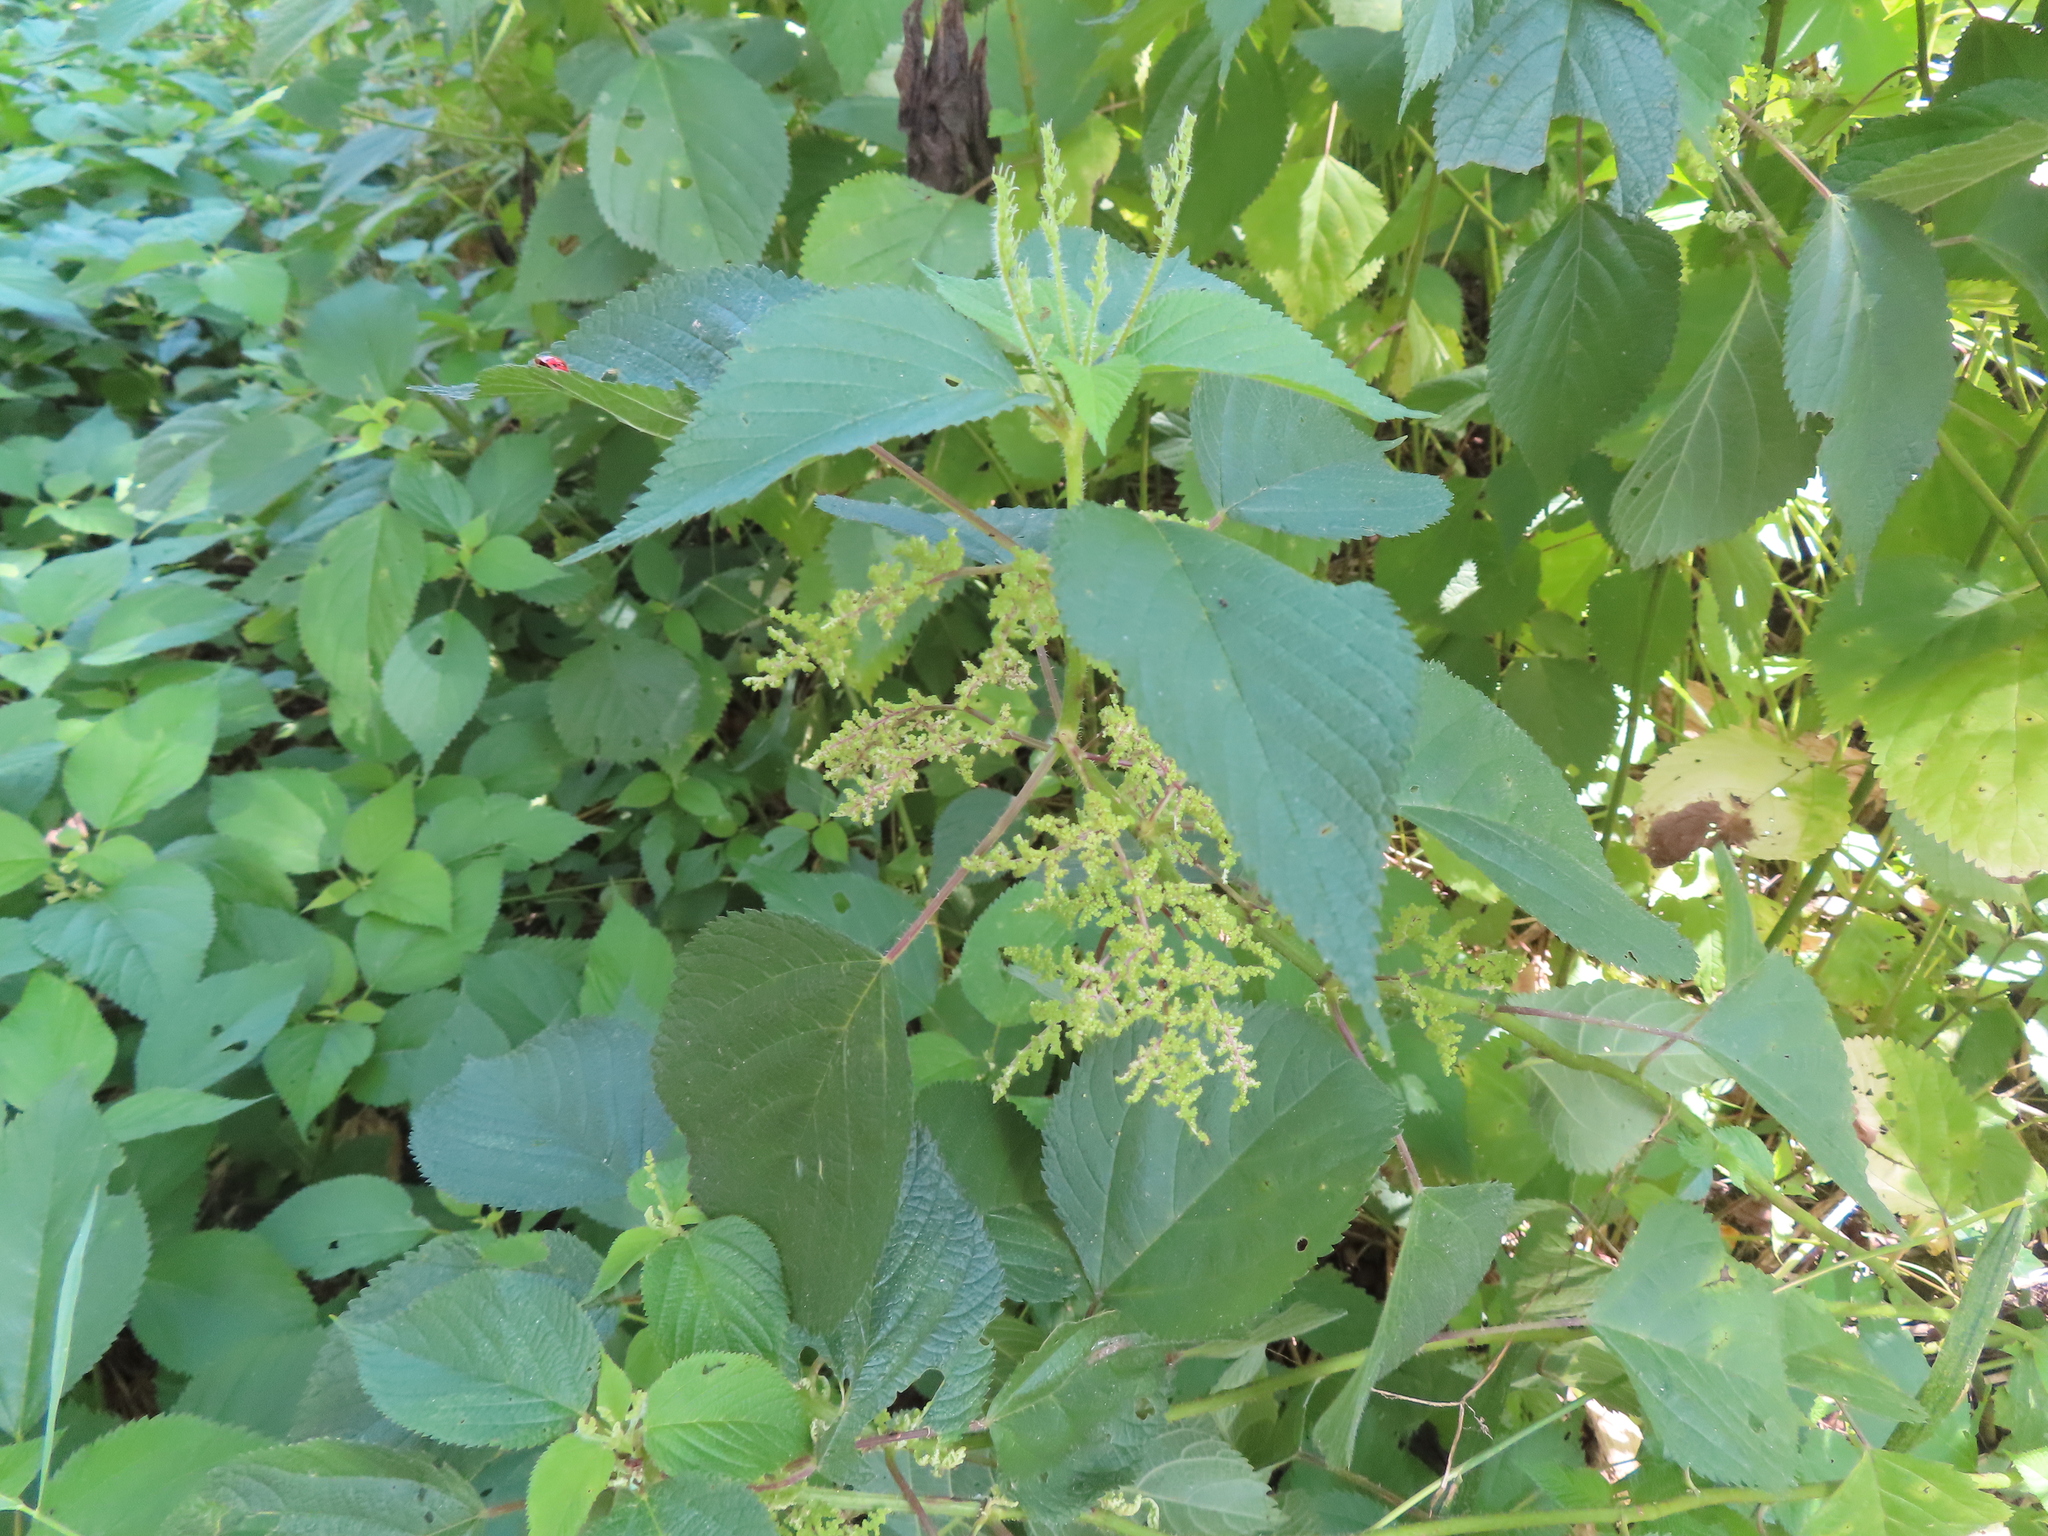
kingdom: Plantae
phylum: Tracheophyta
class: Magnoliopsida
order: Rosales
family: Urticaceae
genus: Laportea
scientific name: Laportea canadensis
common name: Canada nettle
